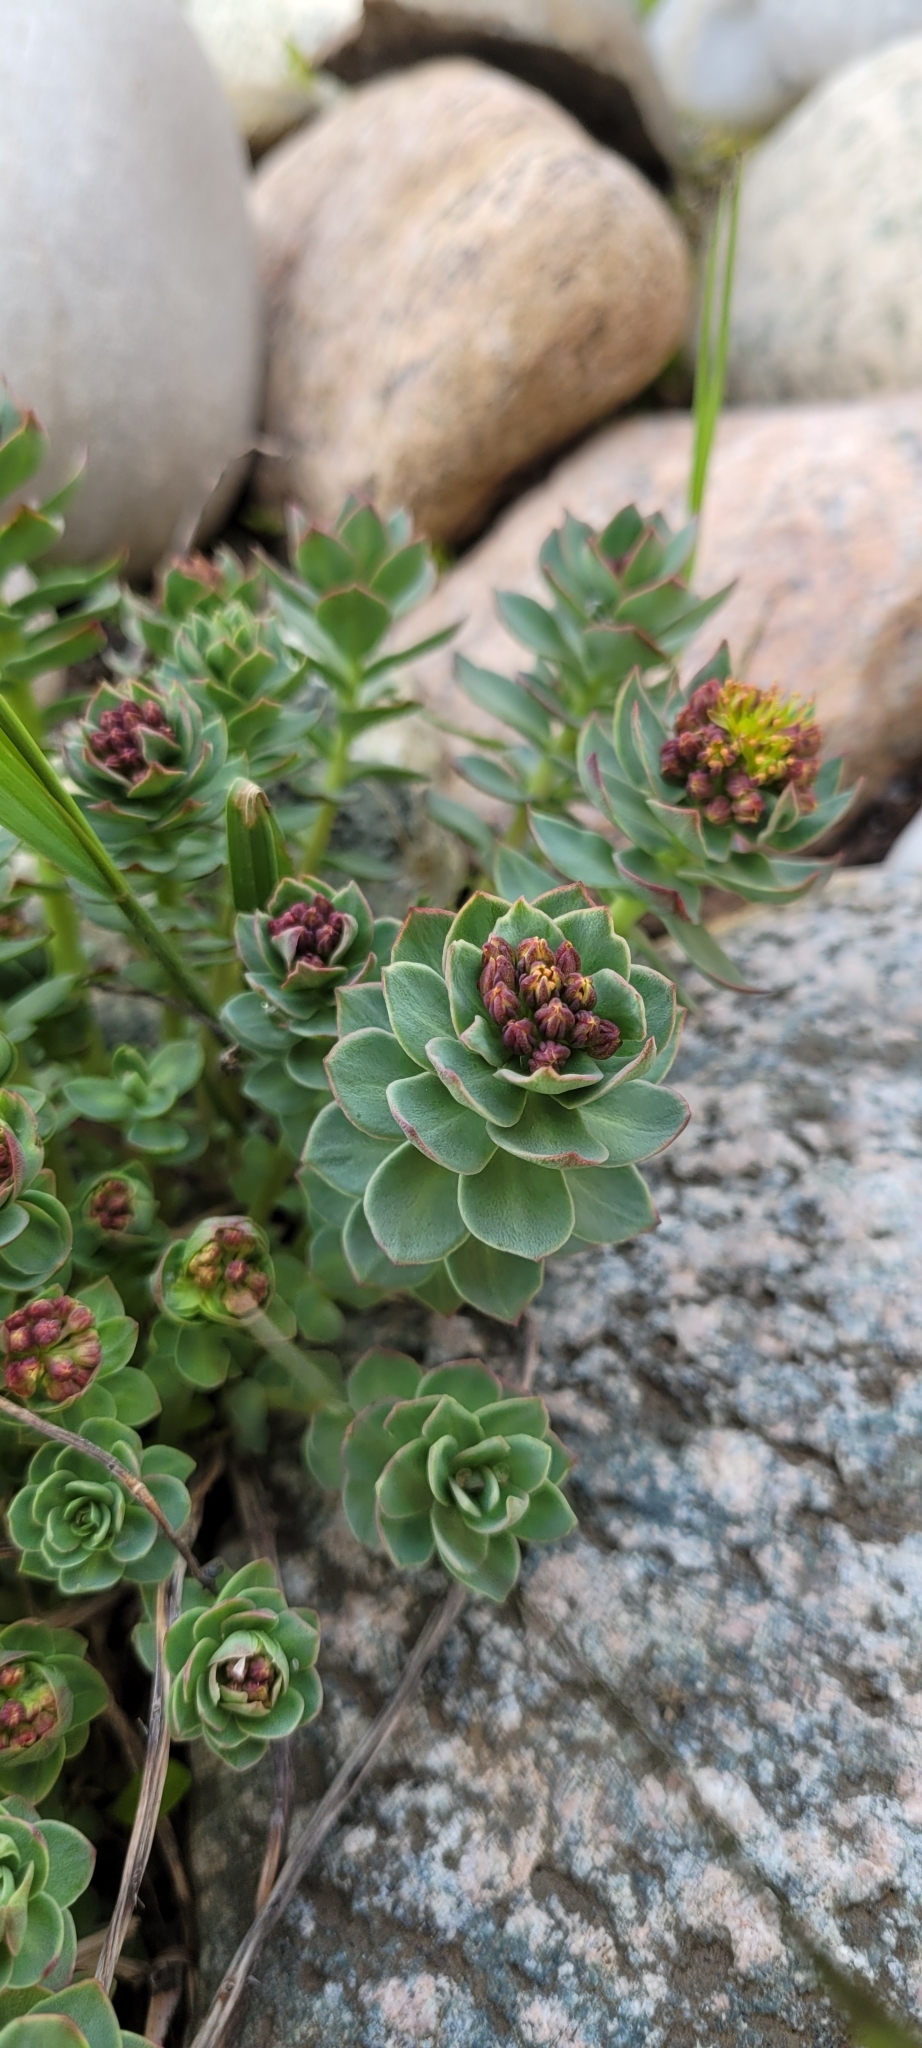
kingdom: Plantae
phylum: Tracheophyta
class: Magnoliopsida
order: Saxifragales
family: Crassulaceae
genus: Rhodiola
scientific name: Rhodiola rosea
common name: Roseroot
